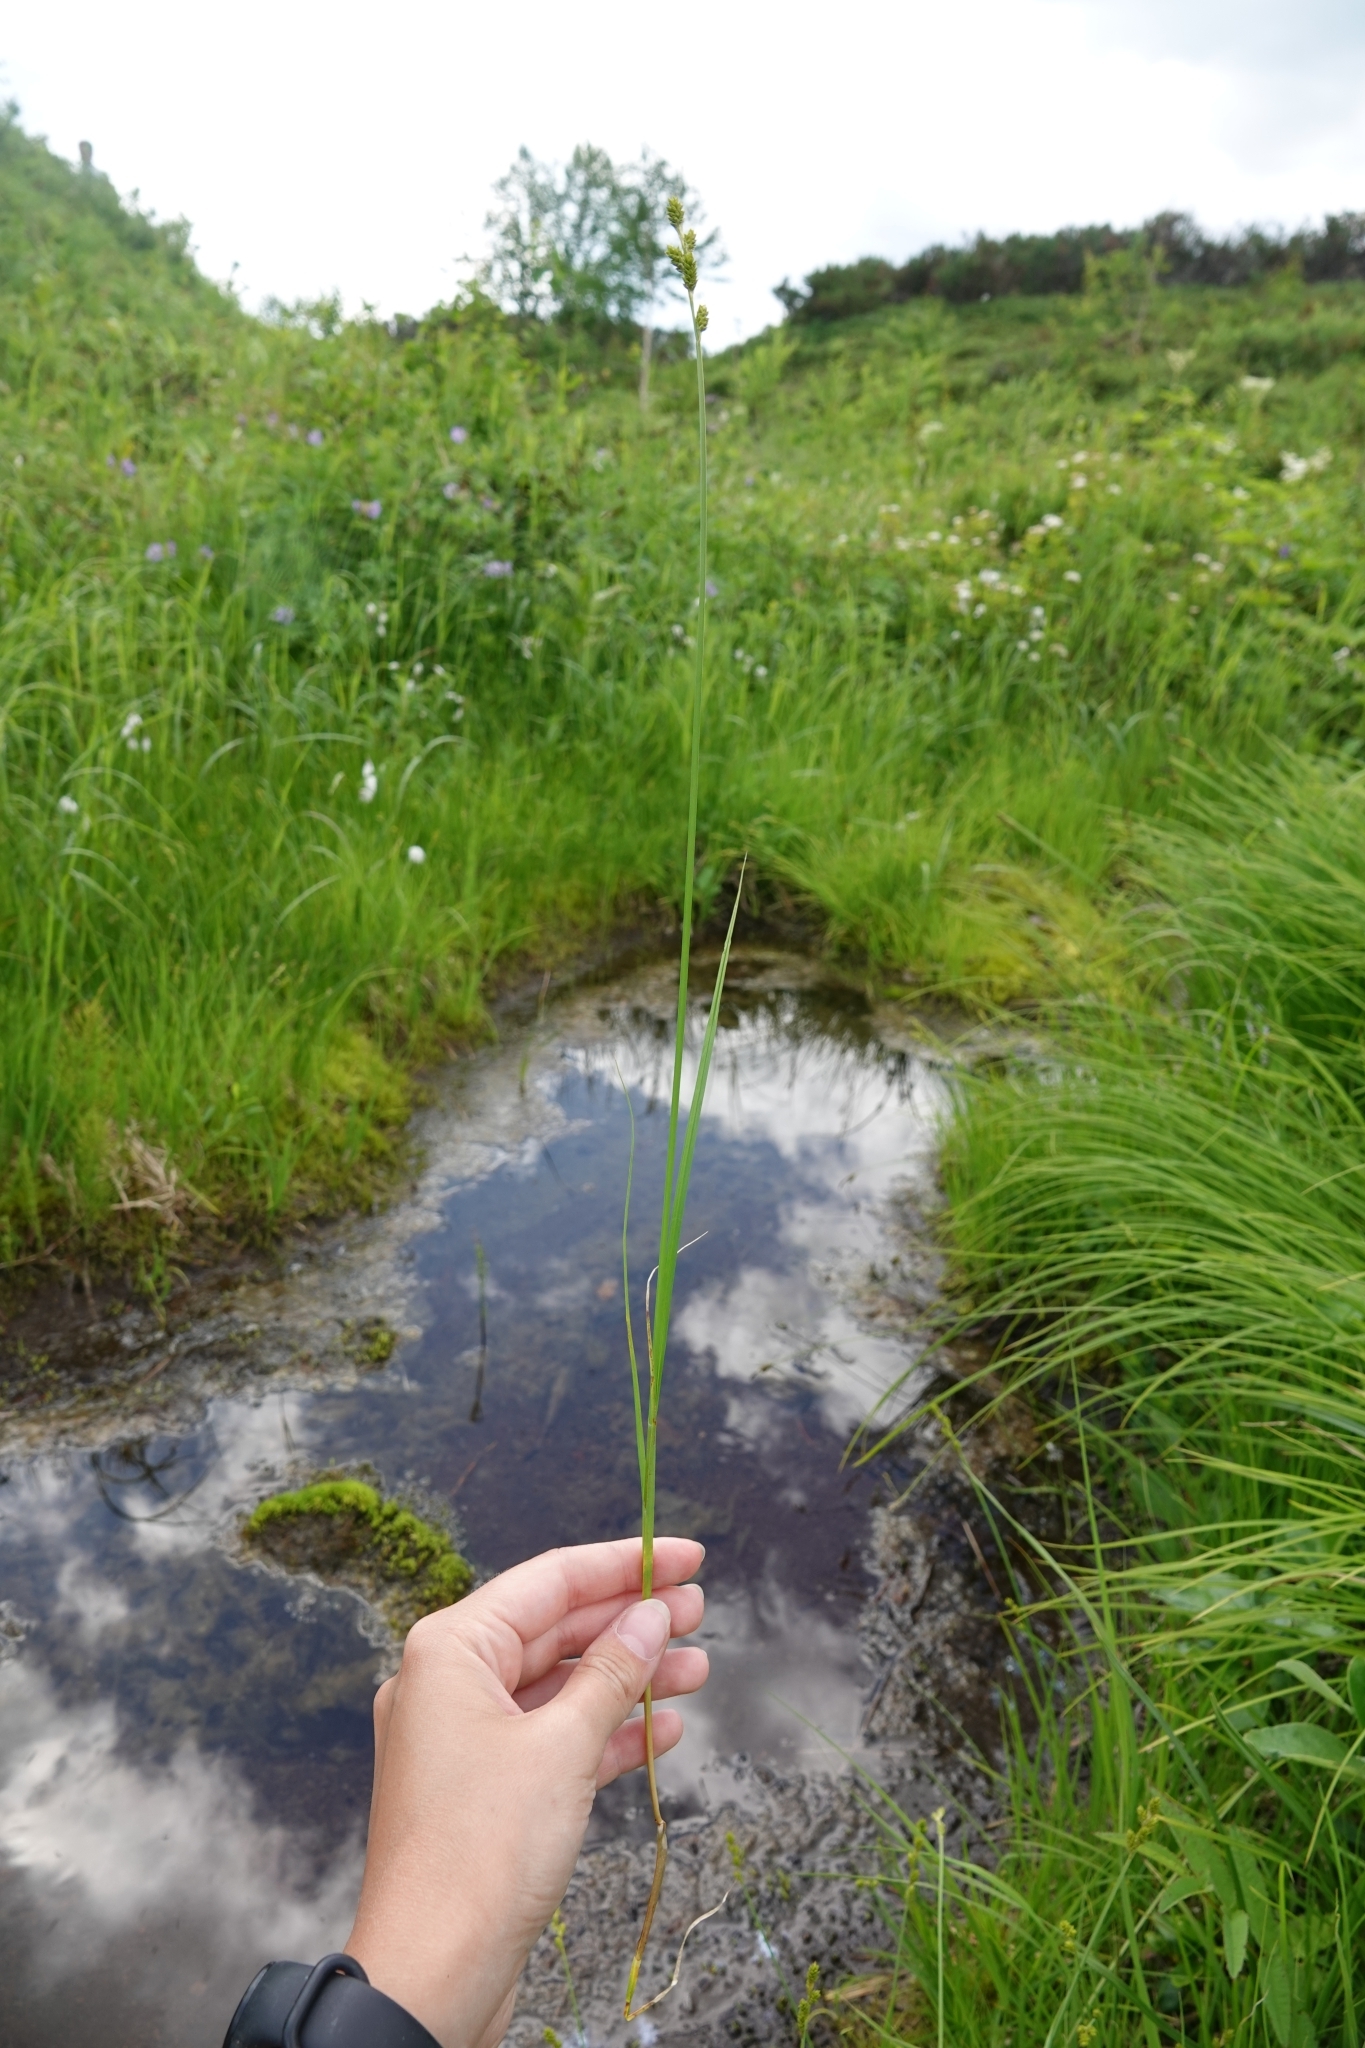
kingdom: Plantae
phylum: Tracheophyta
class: Liliopsida
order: Poales
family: Cyperaceae
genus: Carex
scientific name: Carex canescens
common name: White sedge
